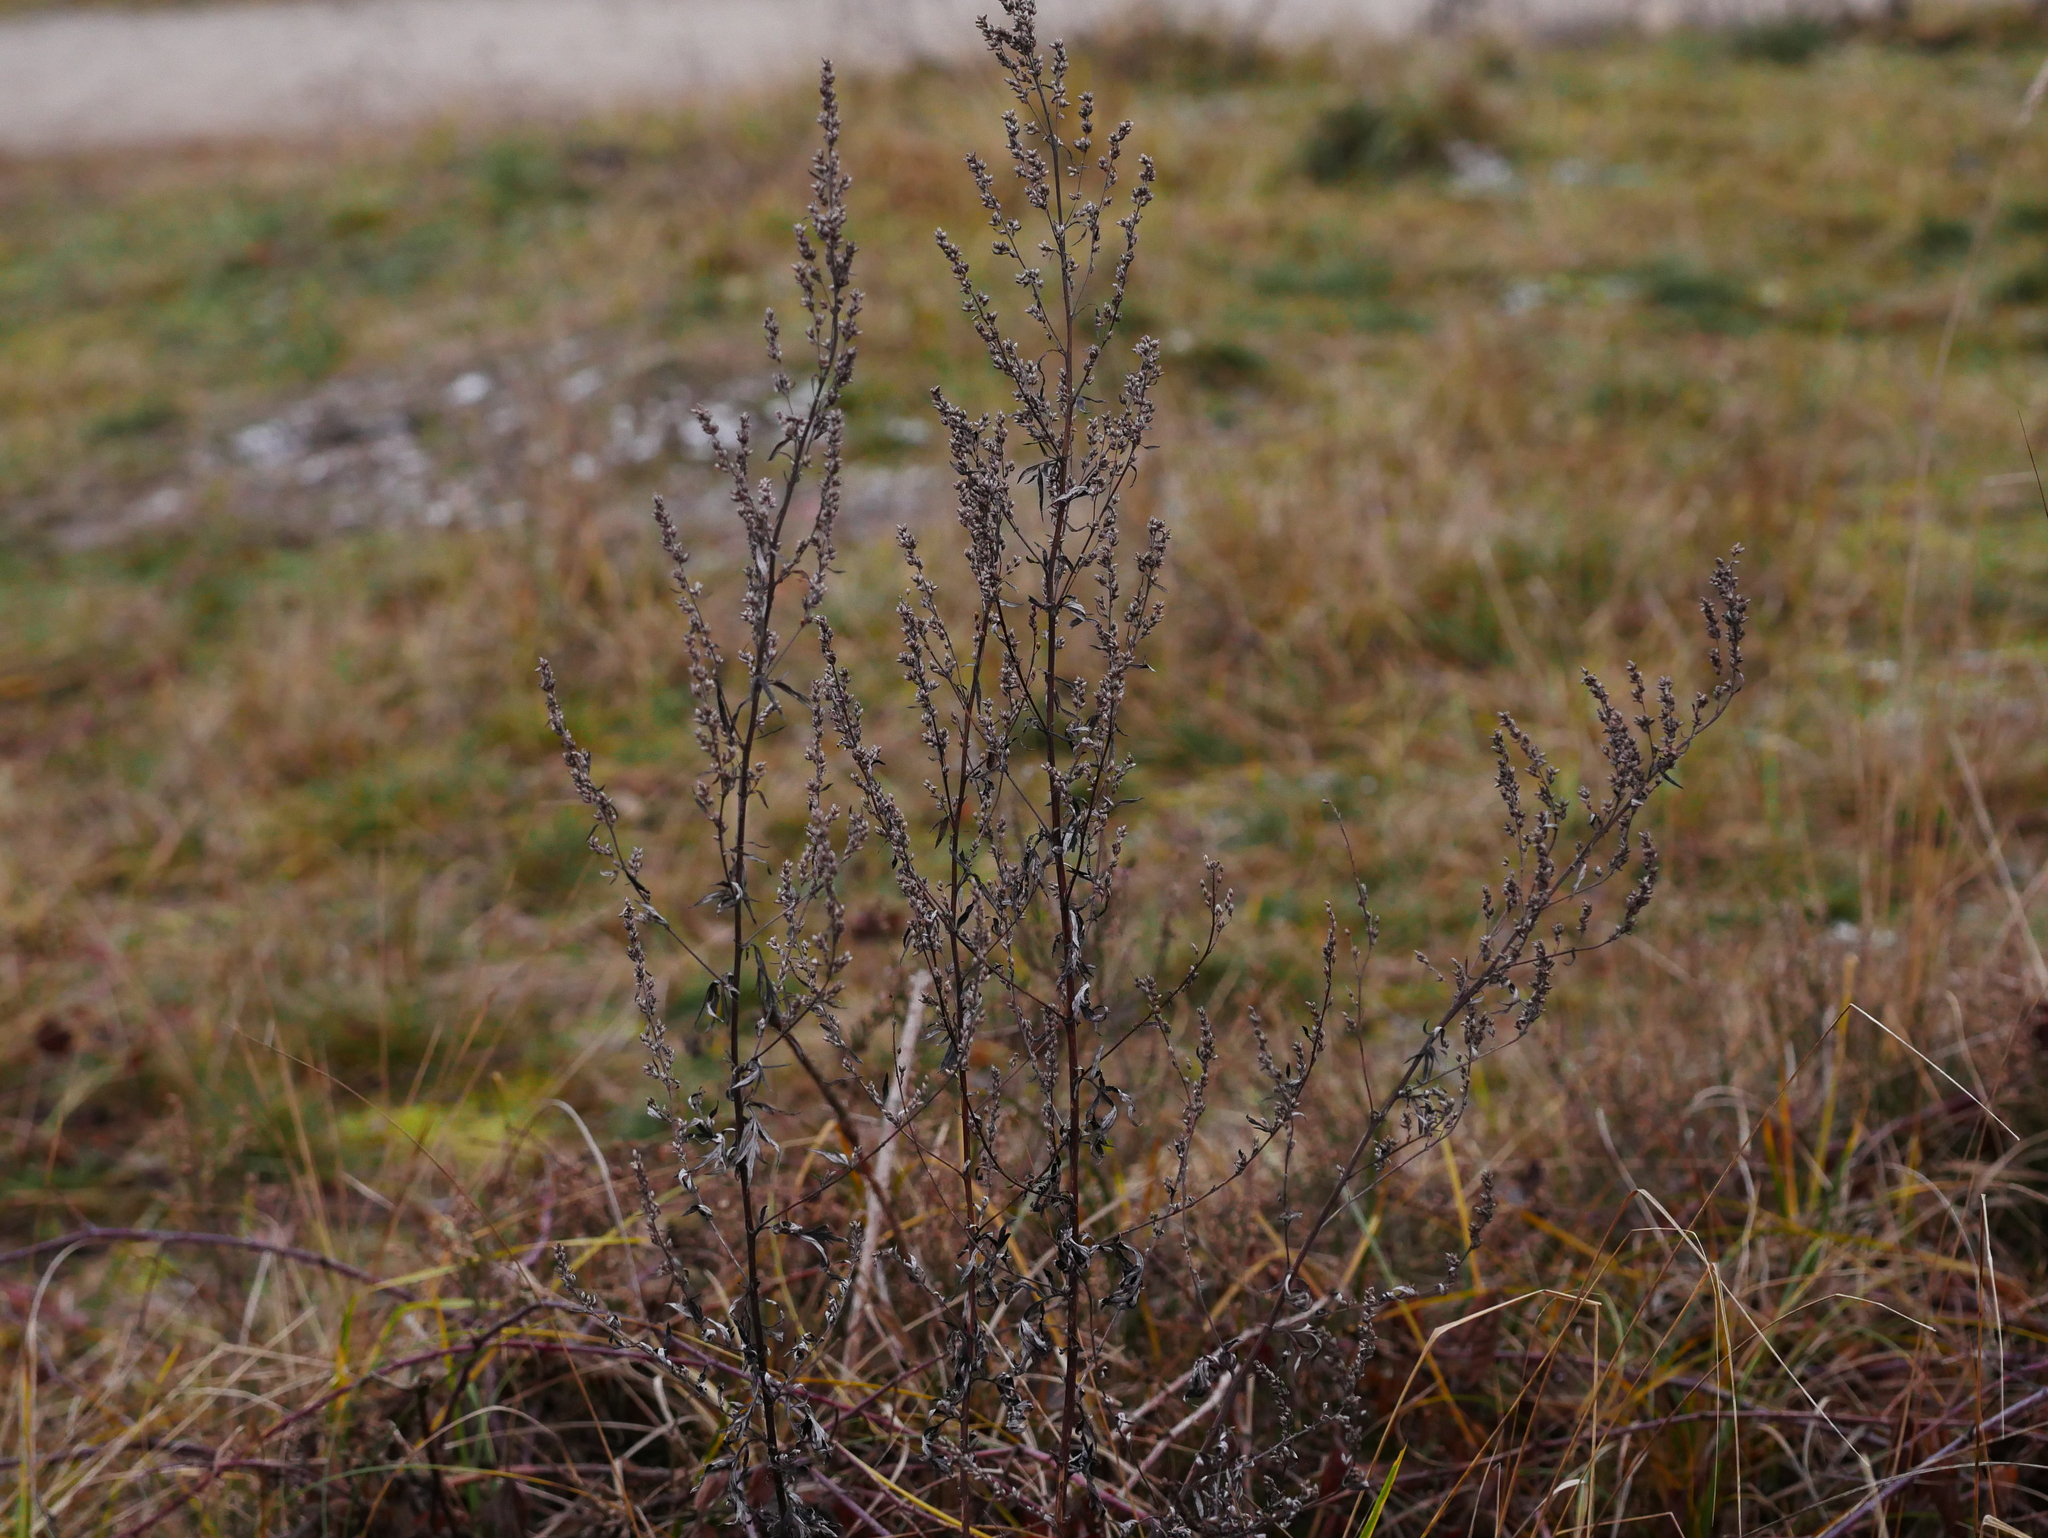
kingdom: Plantae
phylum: Tracheophyta
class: Magnoliopsida
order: Asterales
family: Asteraceae
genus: Artemisia
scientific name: Artemisia vulgaris
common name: Mugwort
